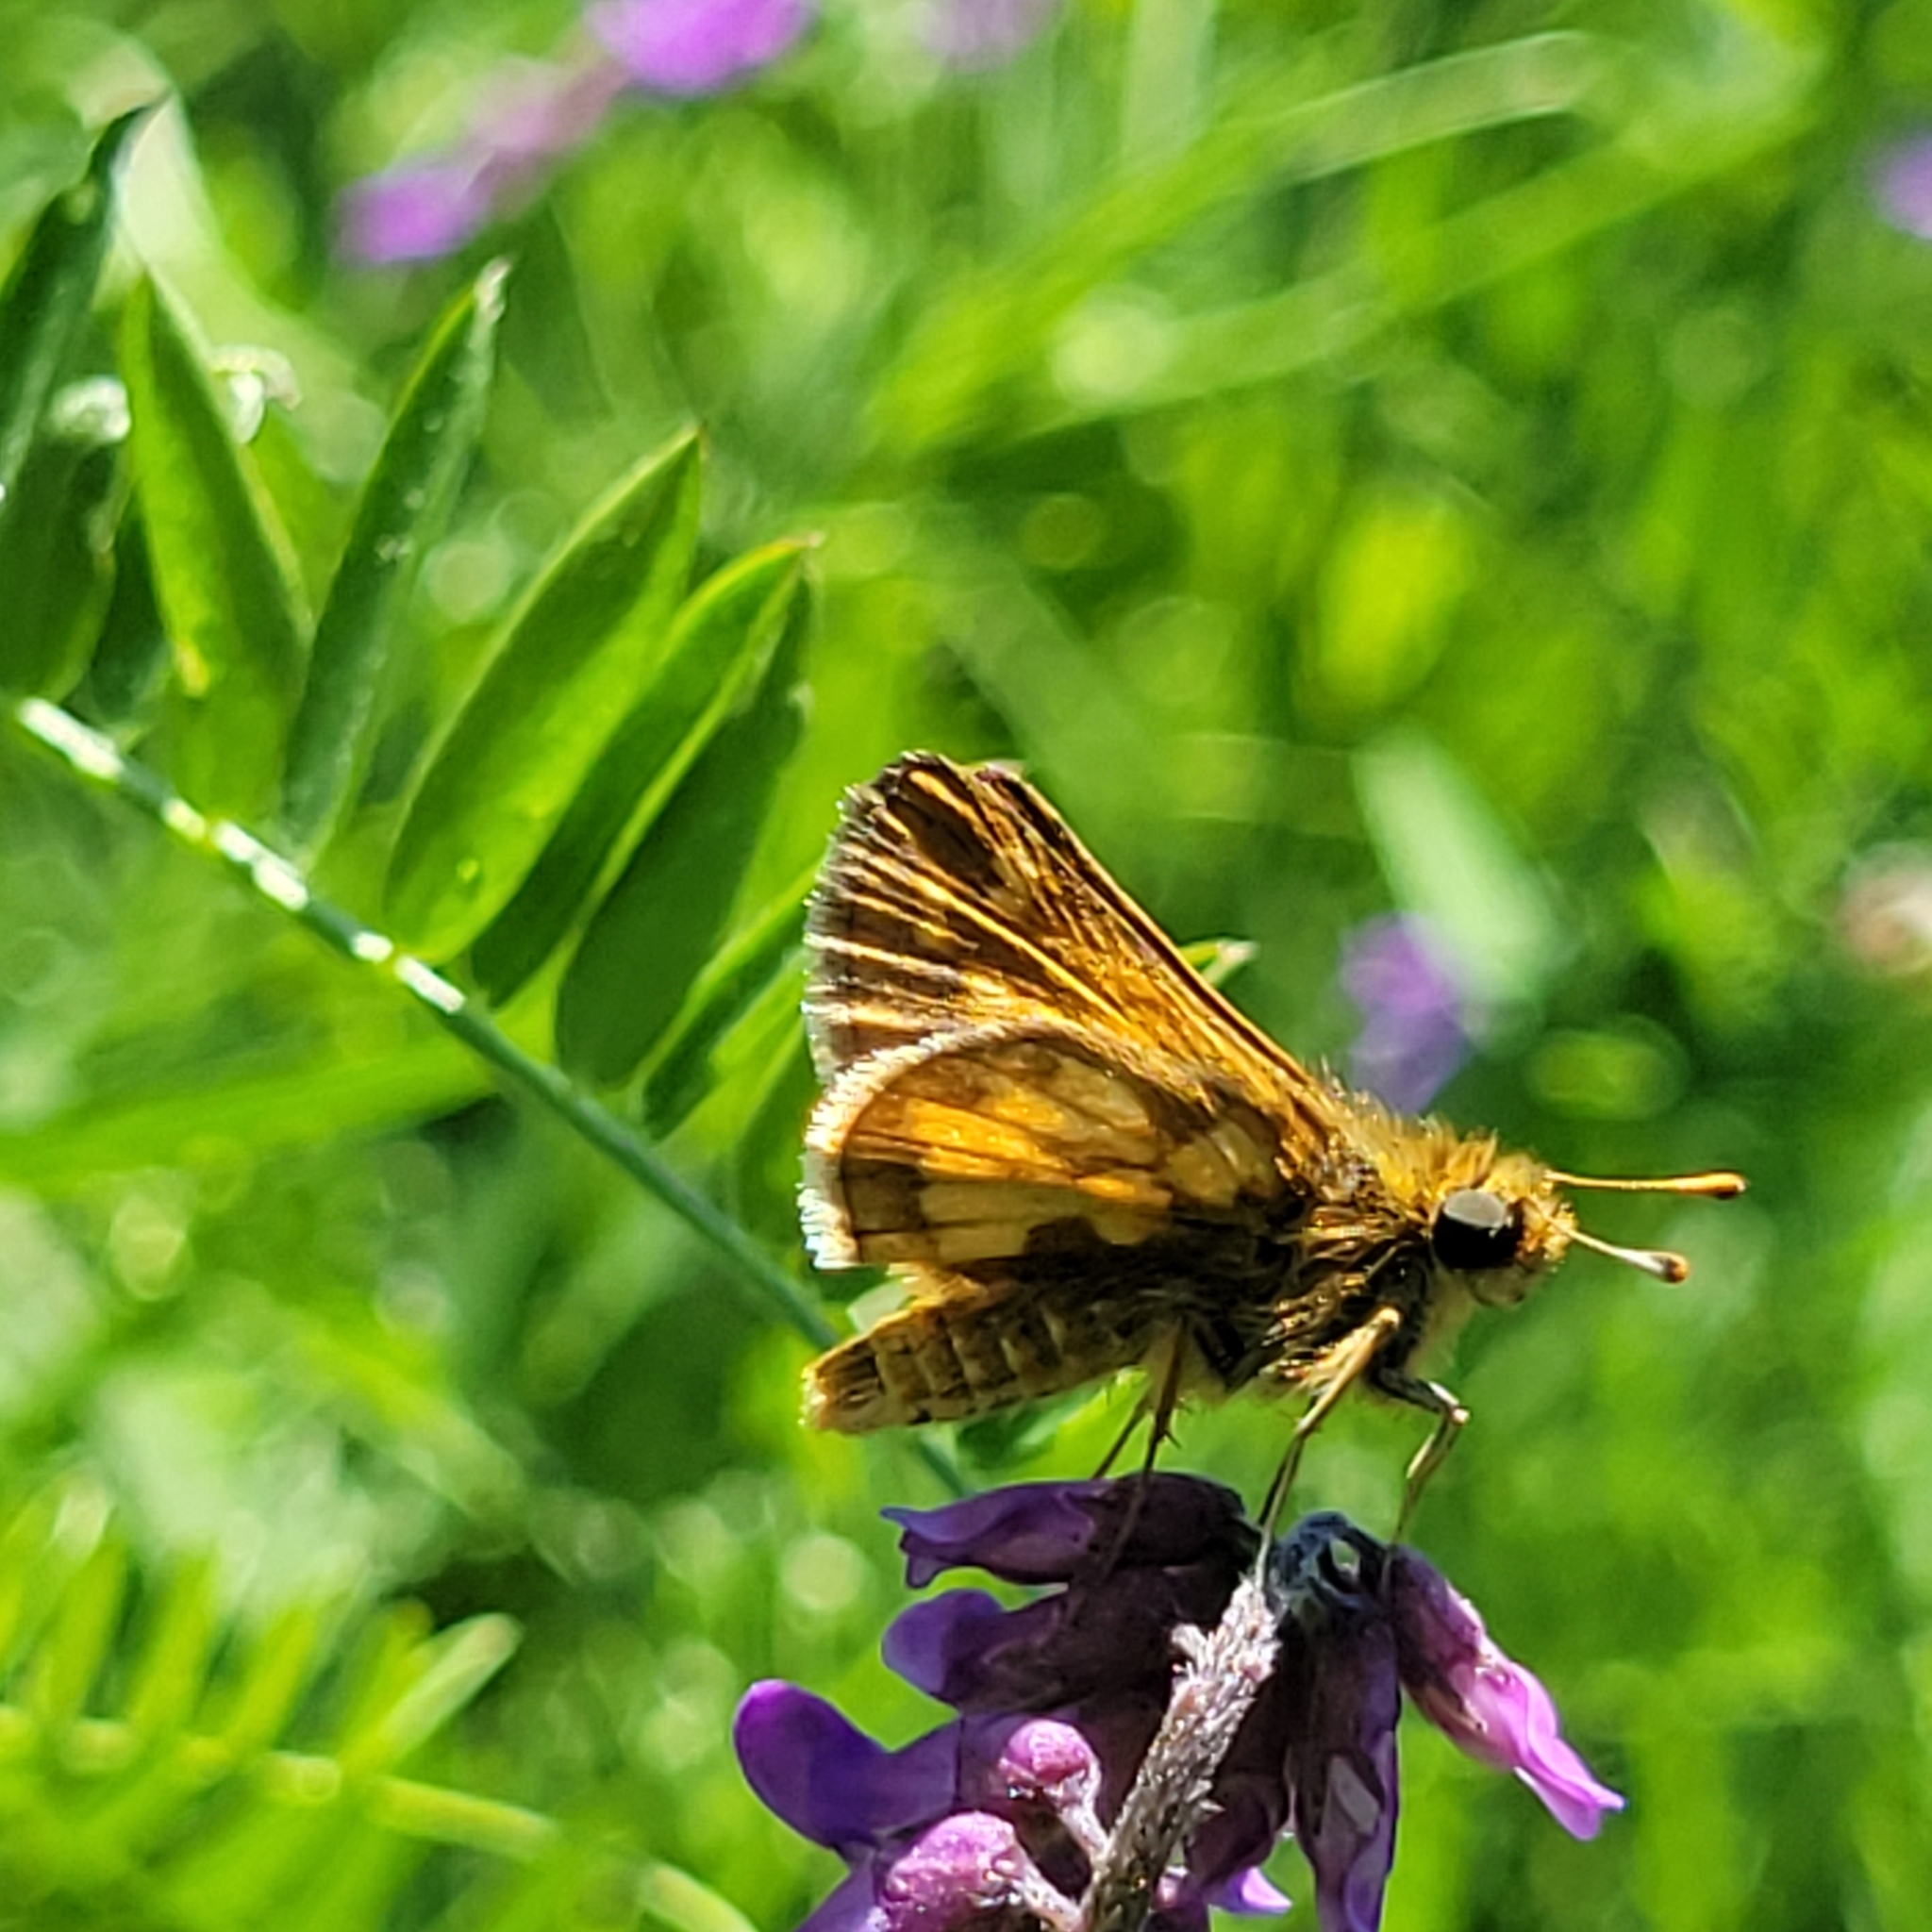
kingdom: Animalia
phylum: Arthropoda
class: Insecta
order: Lepidoptera
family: Hesperiidae
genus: Polites
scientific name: Polites coras
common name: Peck's skipper
